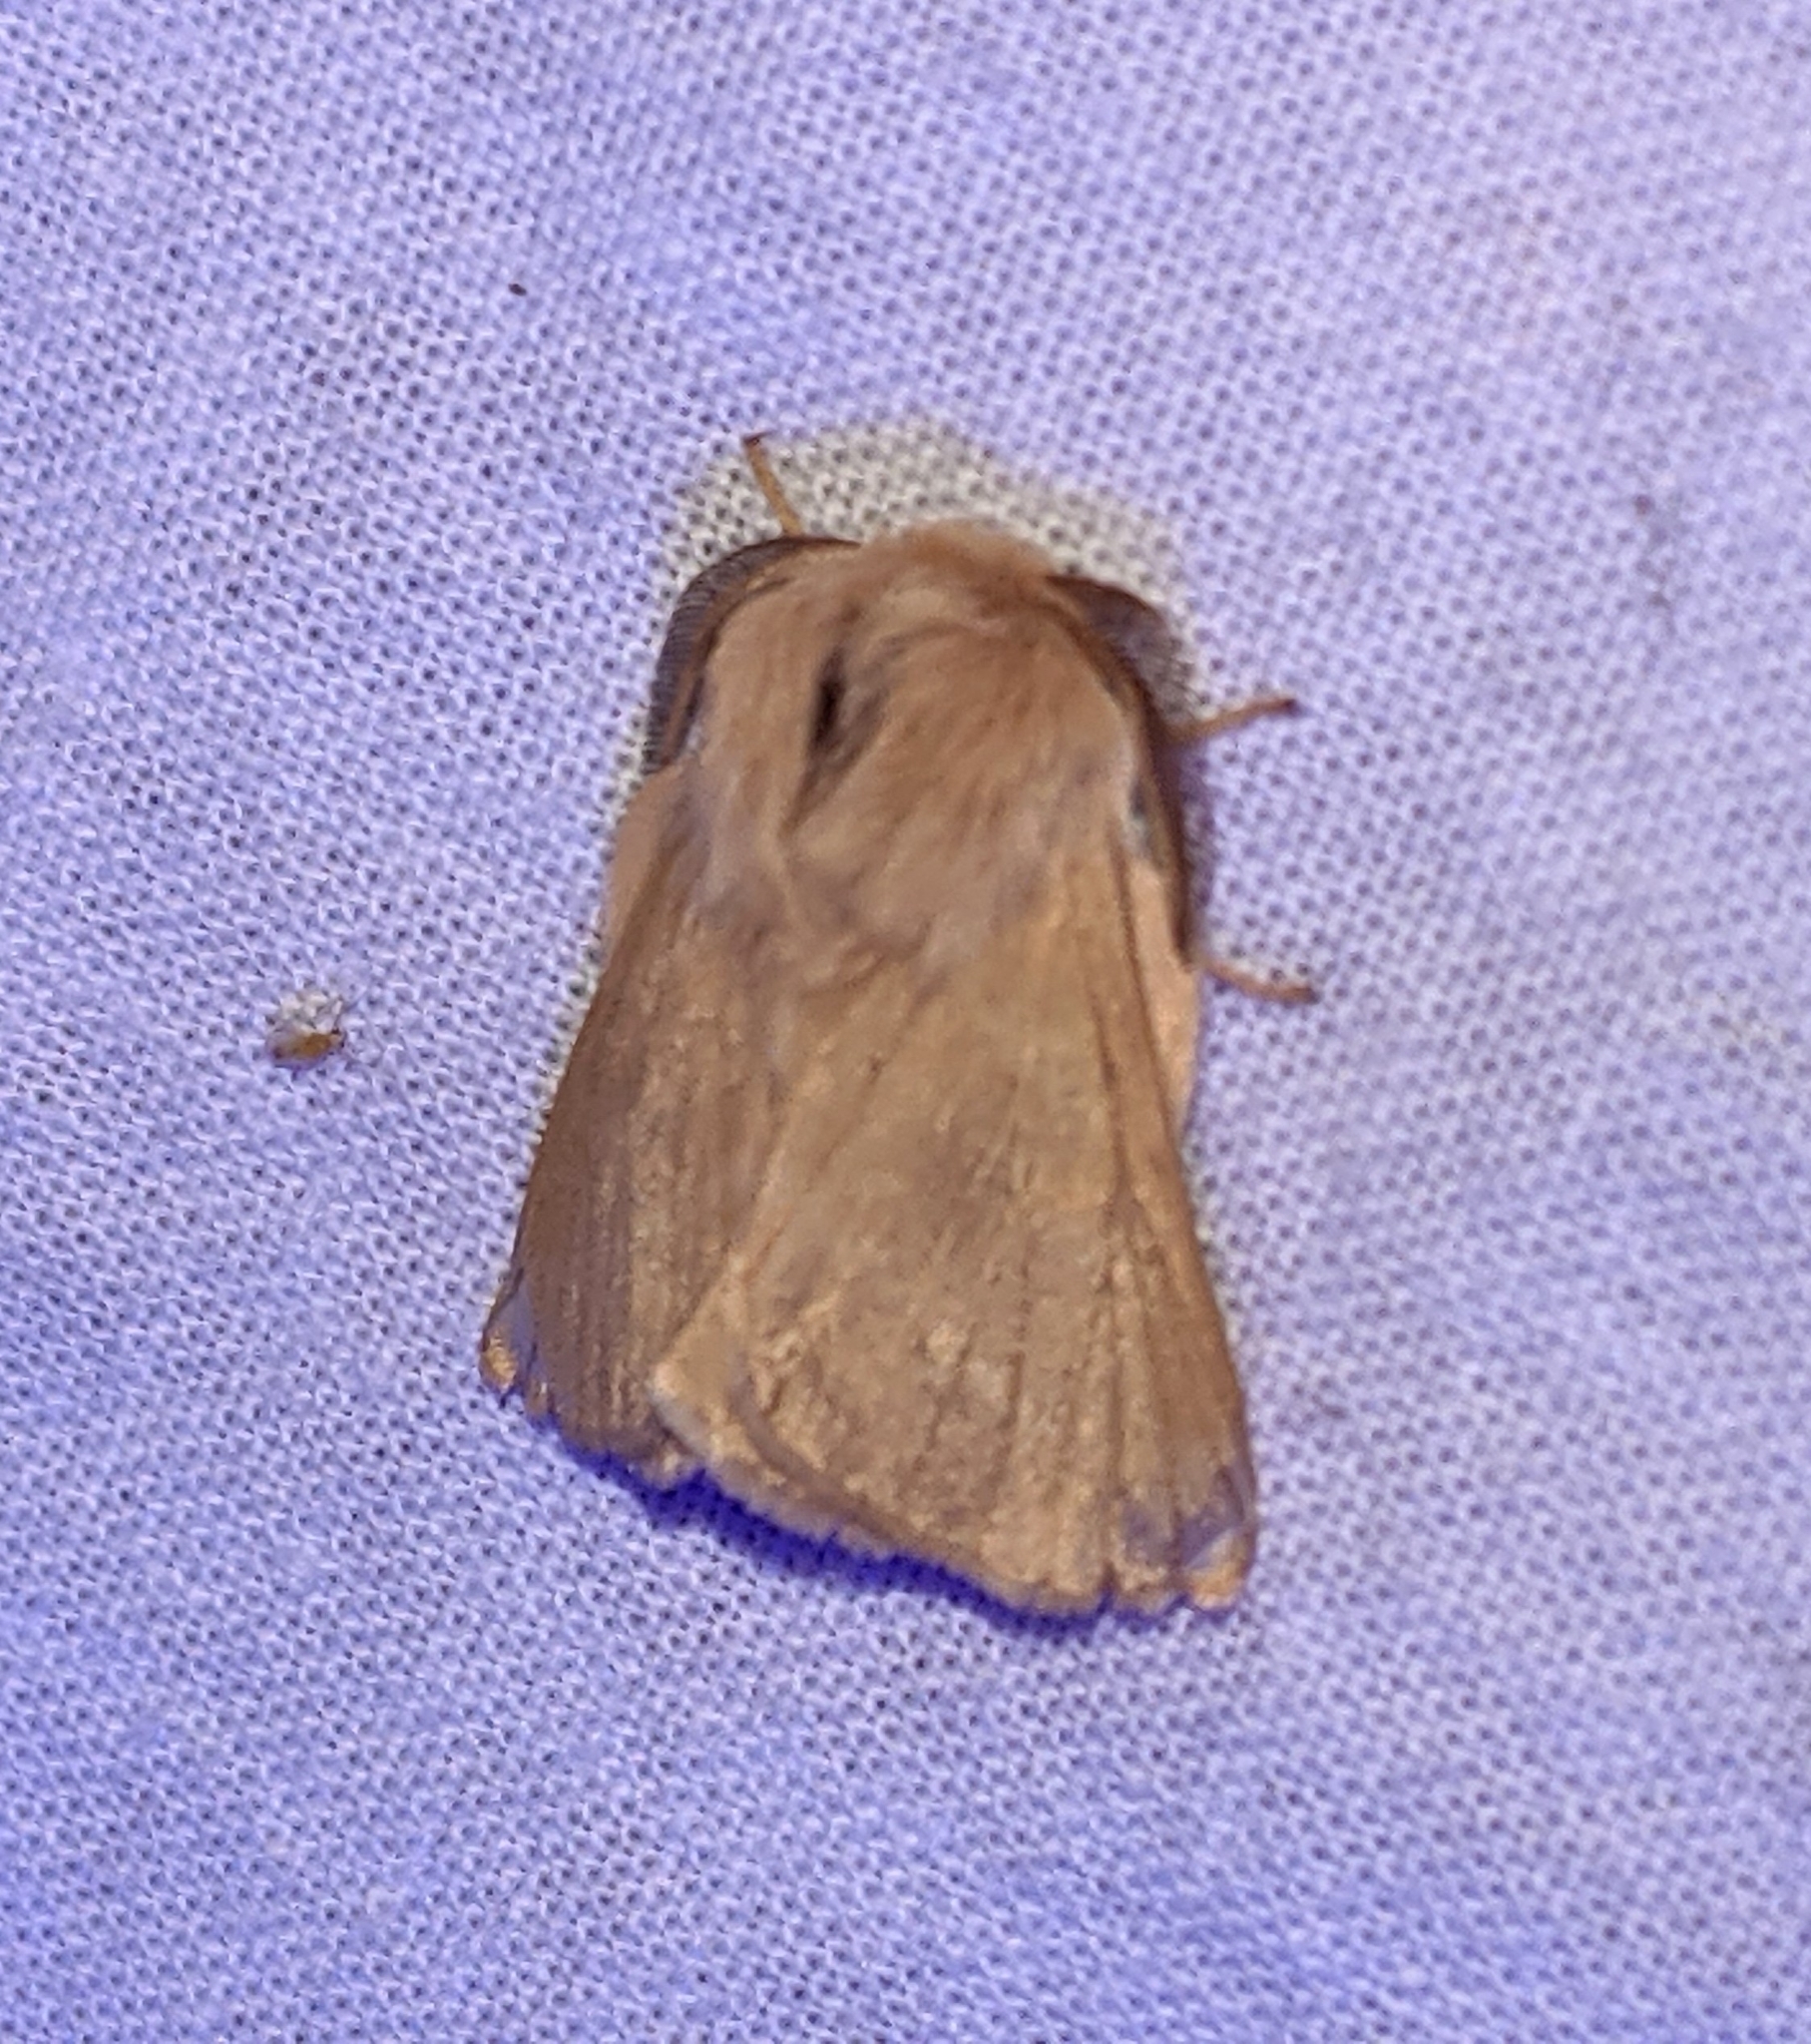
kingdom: Animalia
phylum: Arthropoda
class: Insecta
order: Lepidoptera
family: Lasiocampidae
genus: Malacosoma
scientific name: Malacosoma disstria
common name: Forest tent caterpillar
